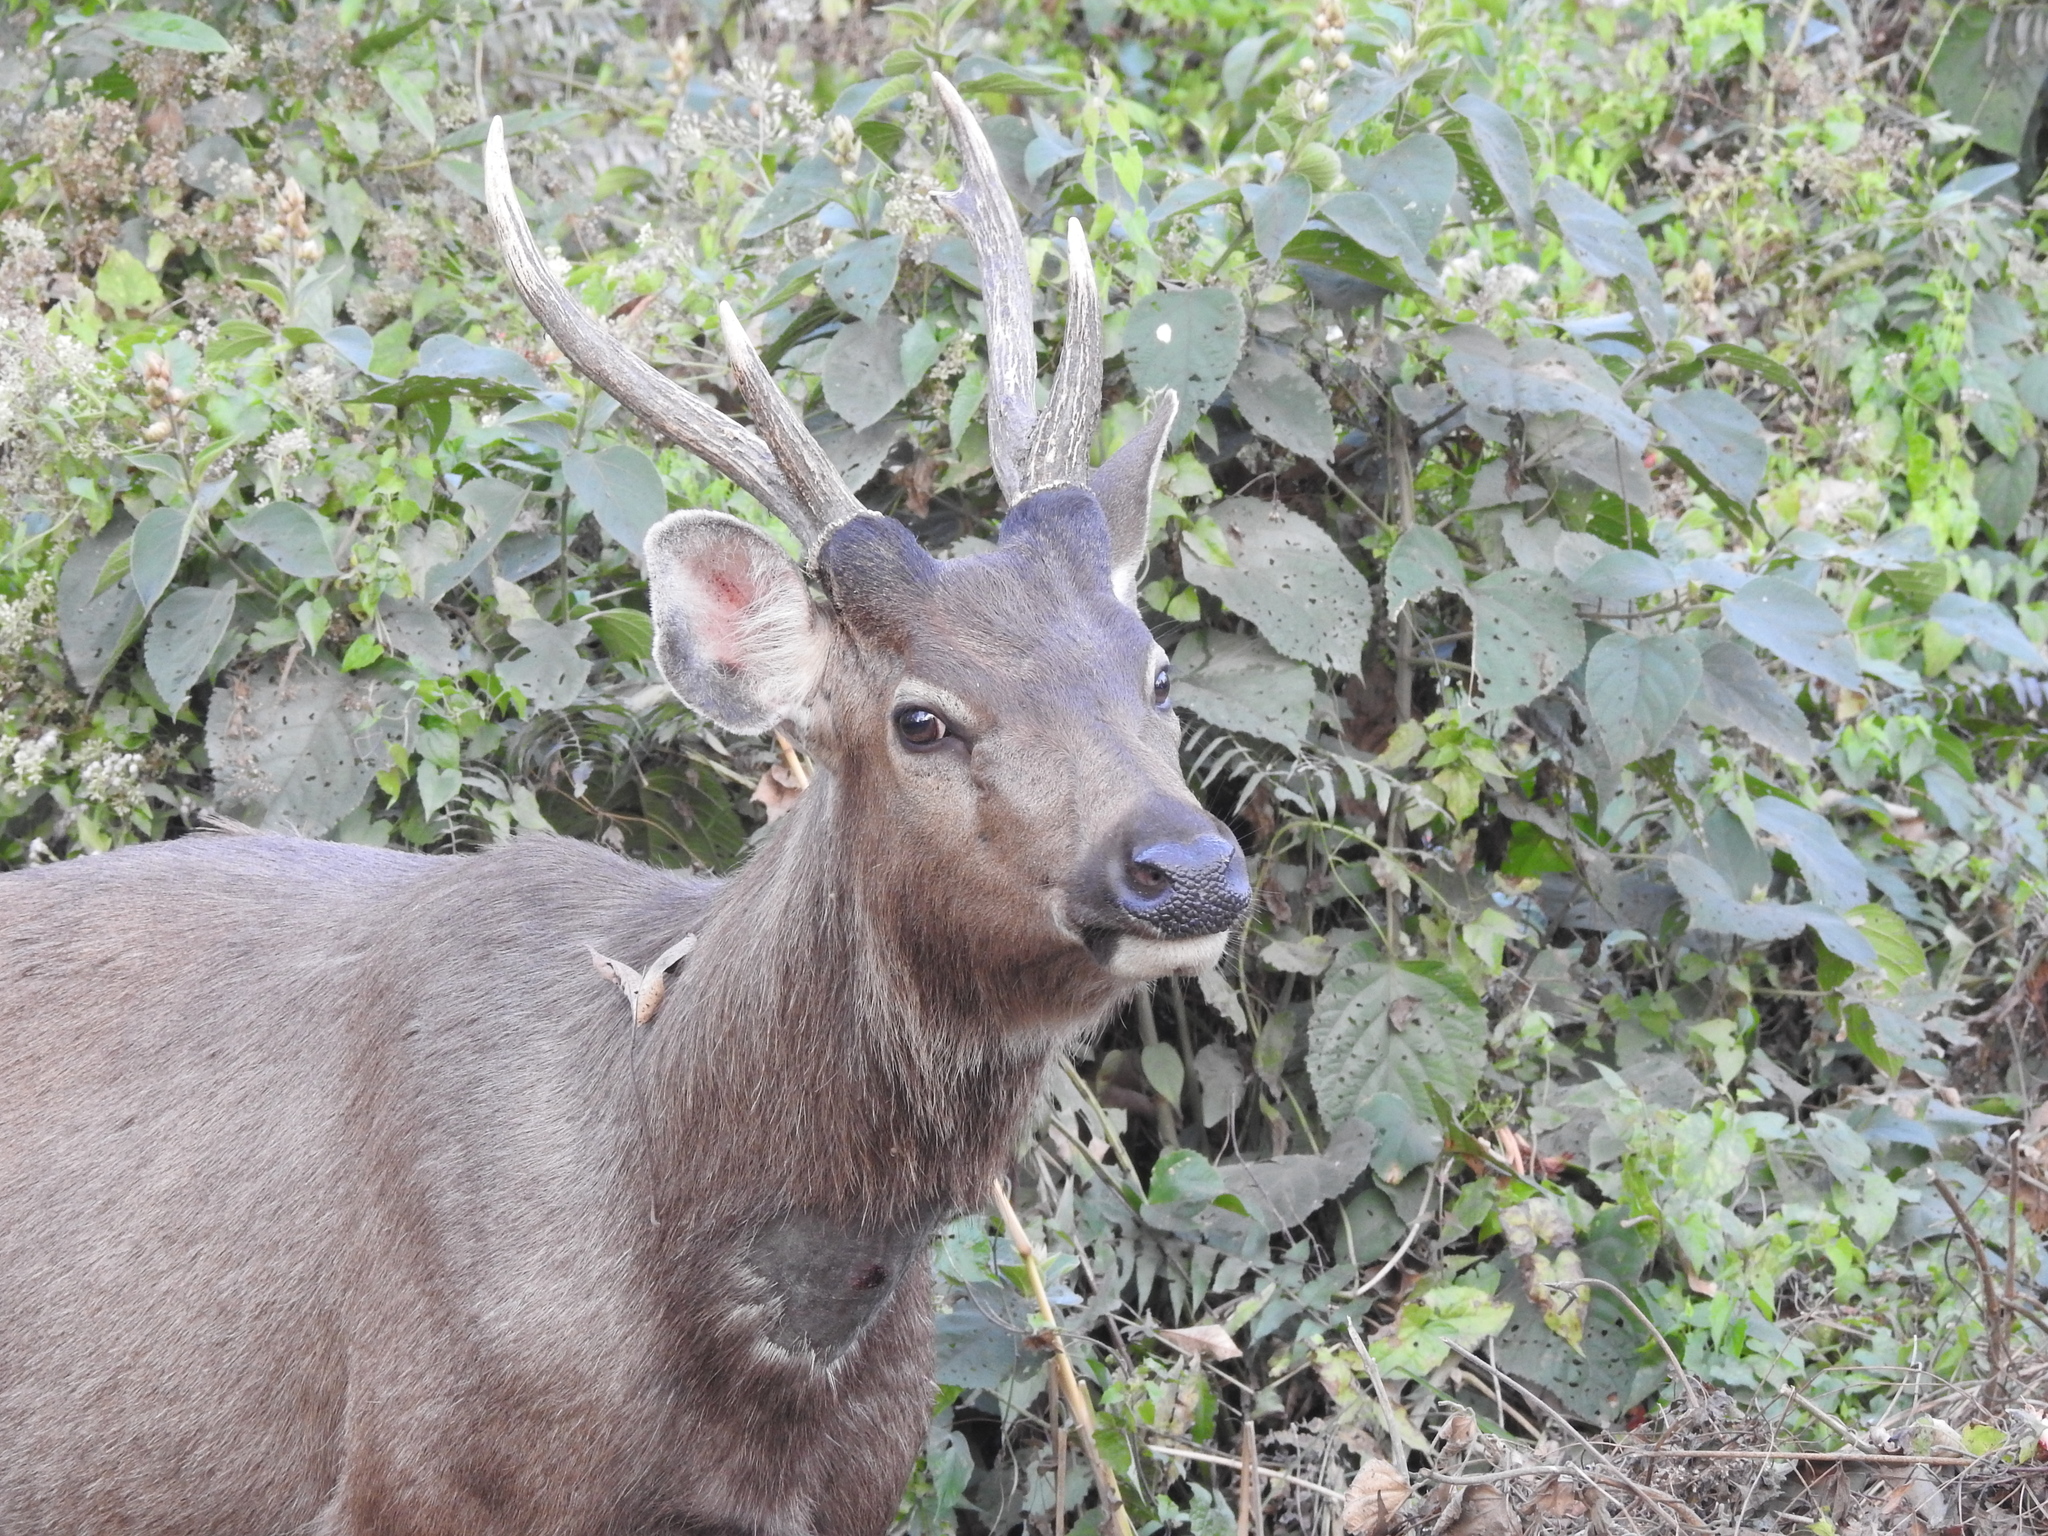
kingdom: Animalia
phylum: Chordata
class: Mammalia
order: Artiodactyla
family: Cervidae
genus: Rusa
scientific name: Rusa unicolor
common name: Sambar
